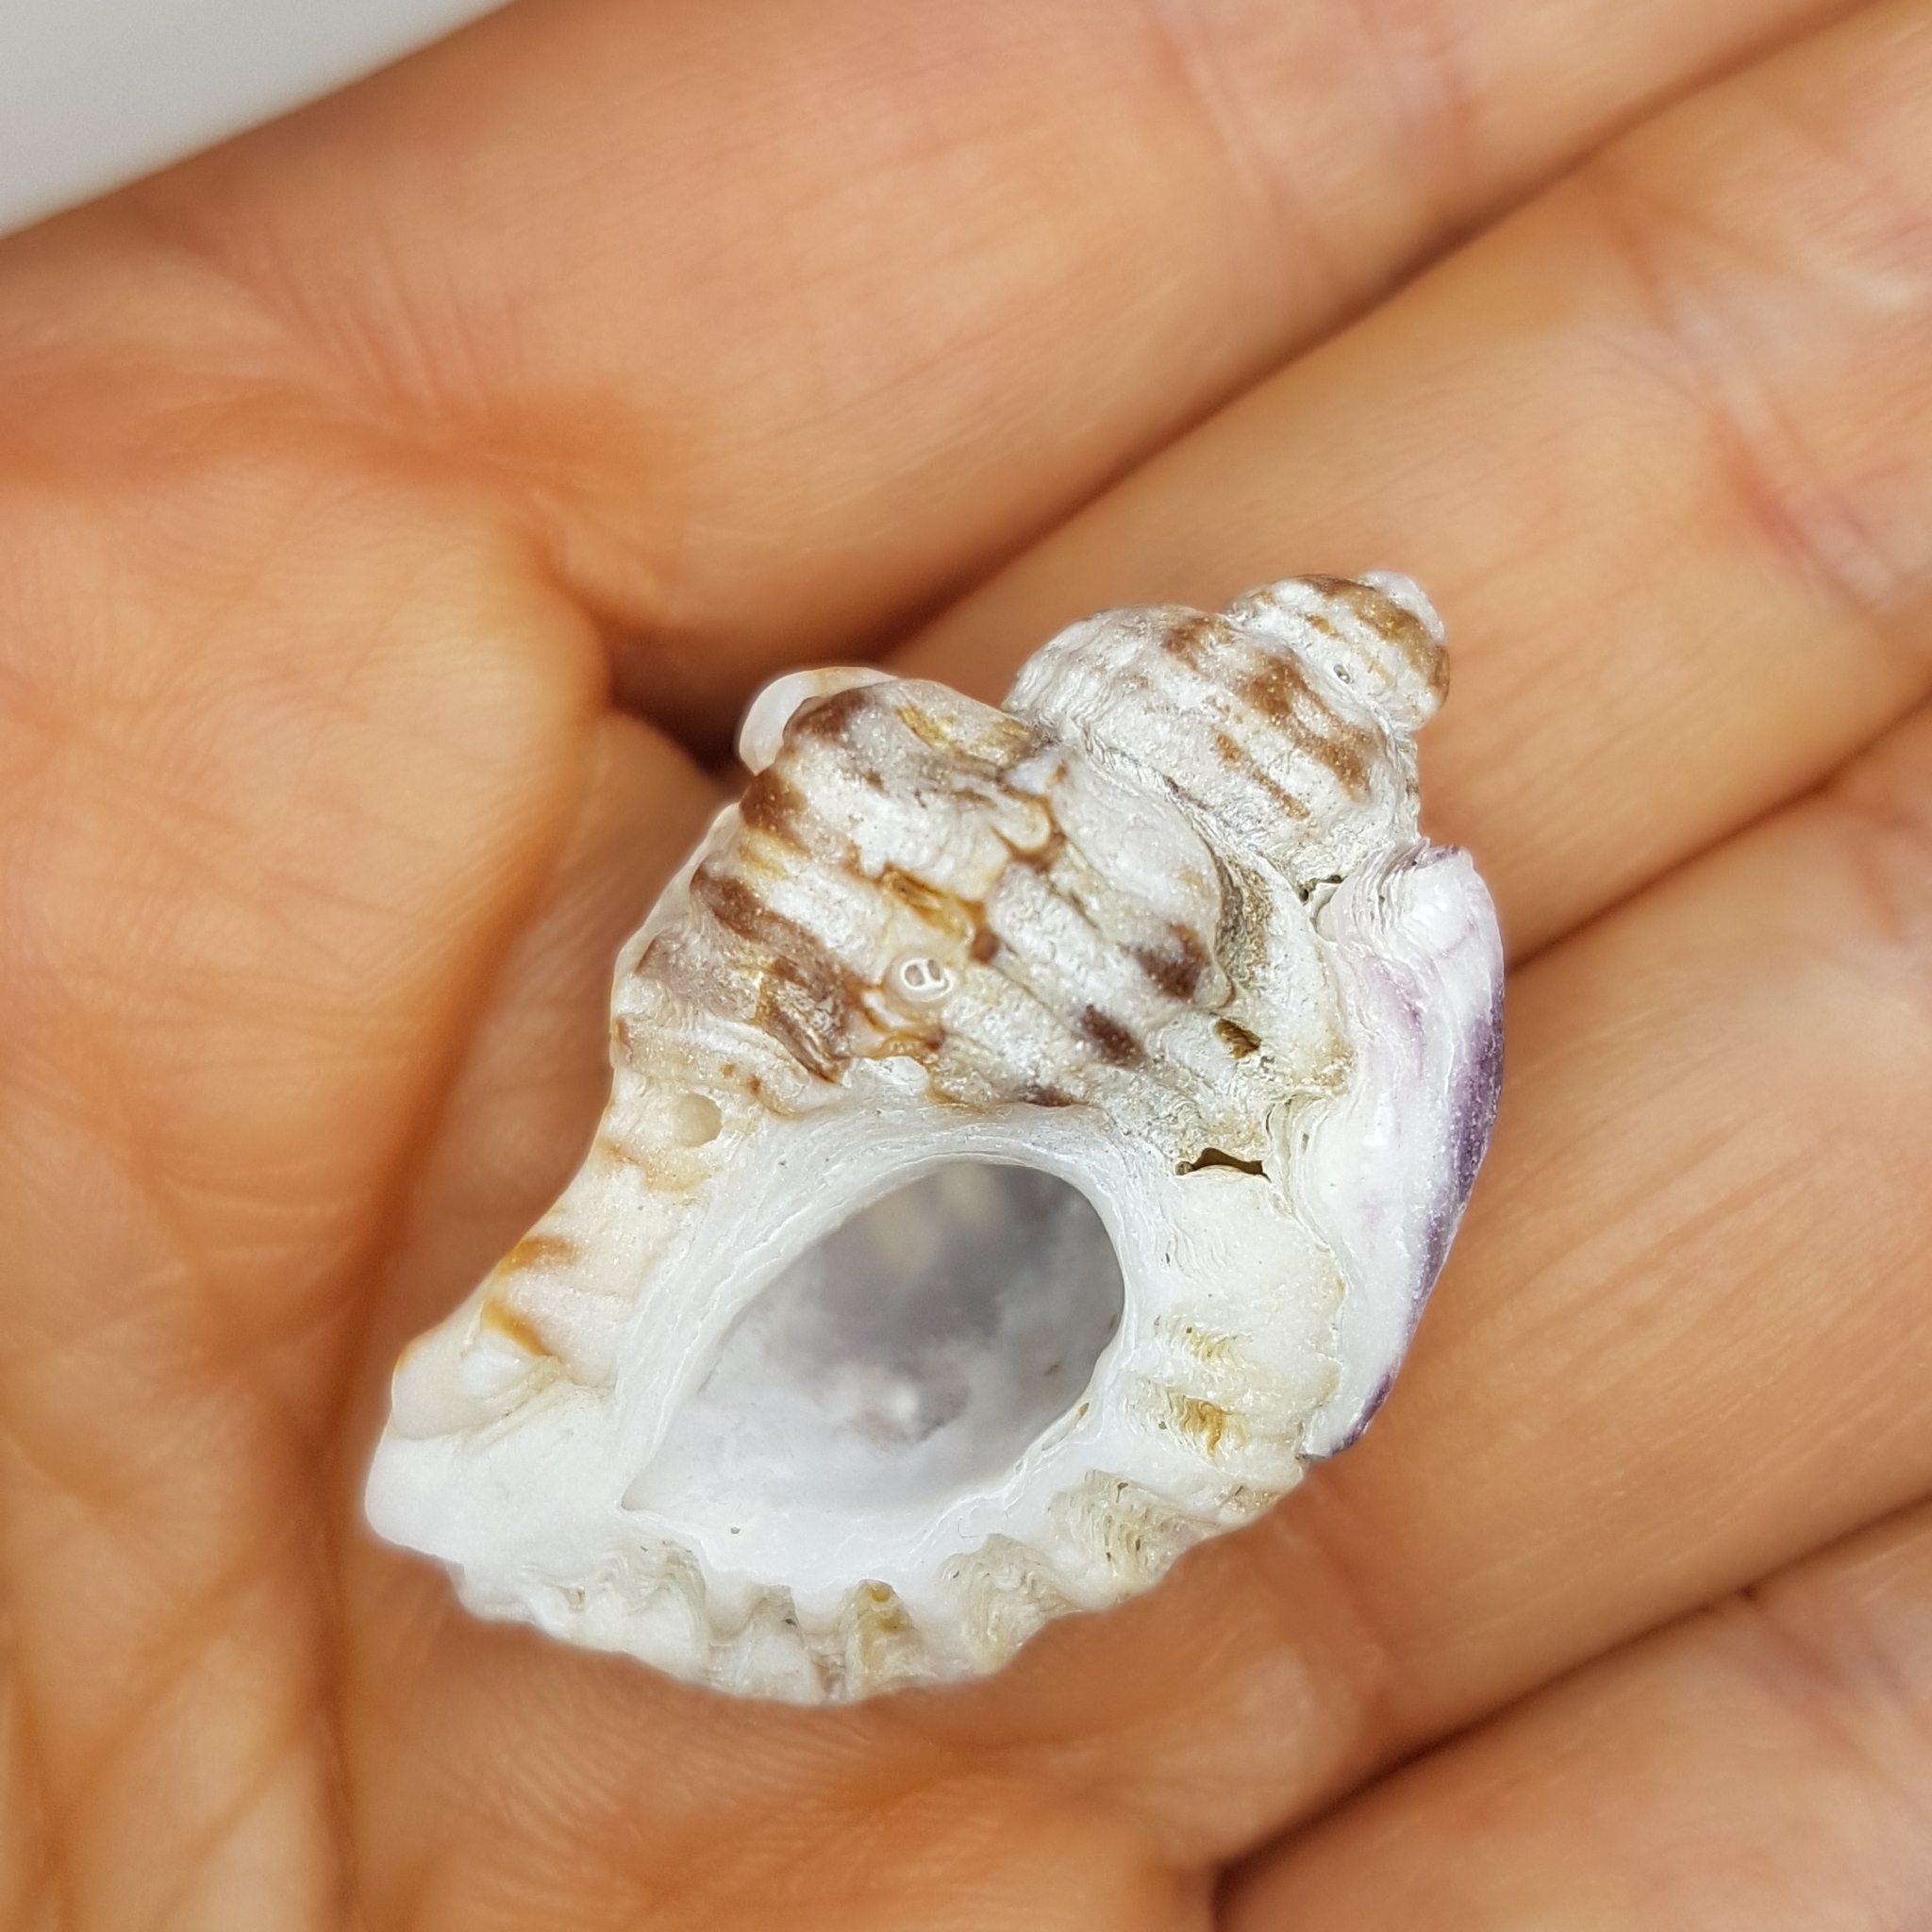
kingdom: Animalia
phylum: Mollusca
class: Gastropoda
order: Neogastropoda
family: Muricidae
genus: Ocenebra
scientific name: Ocenebra erinaceus
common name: European sting winkle
